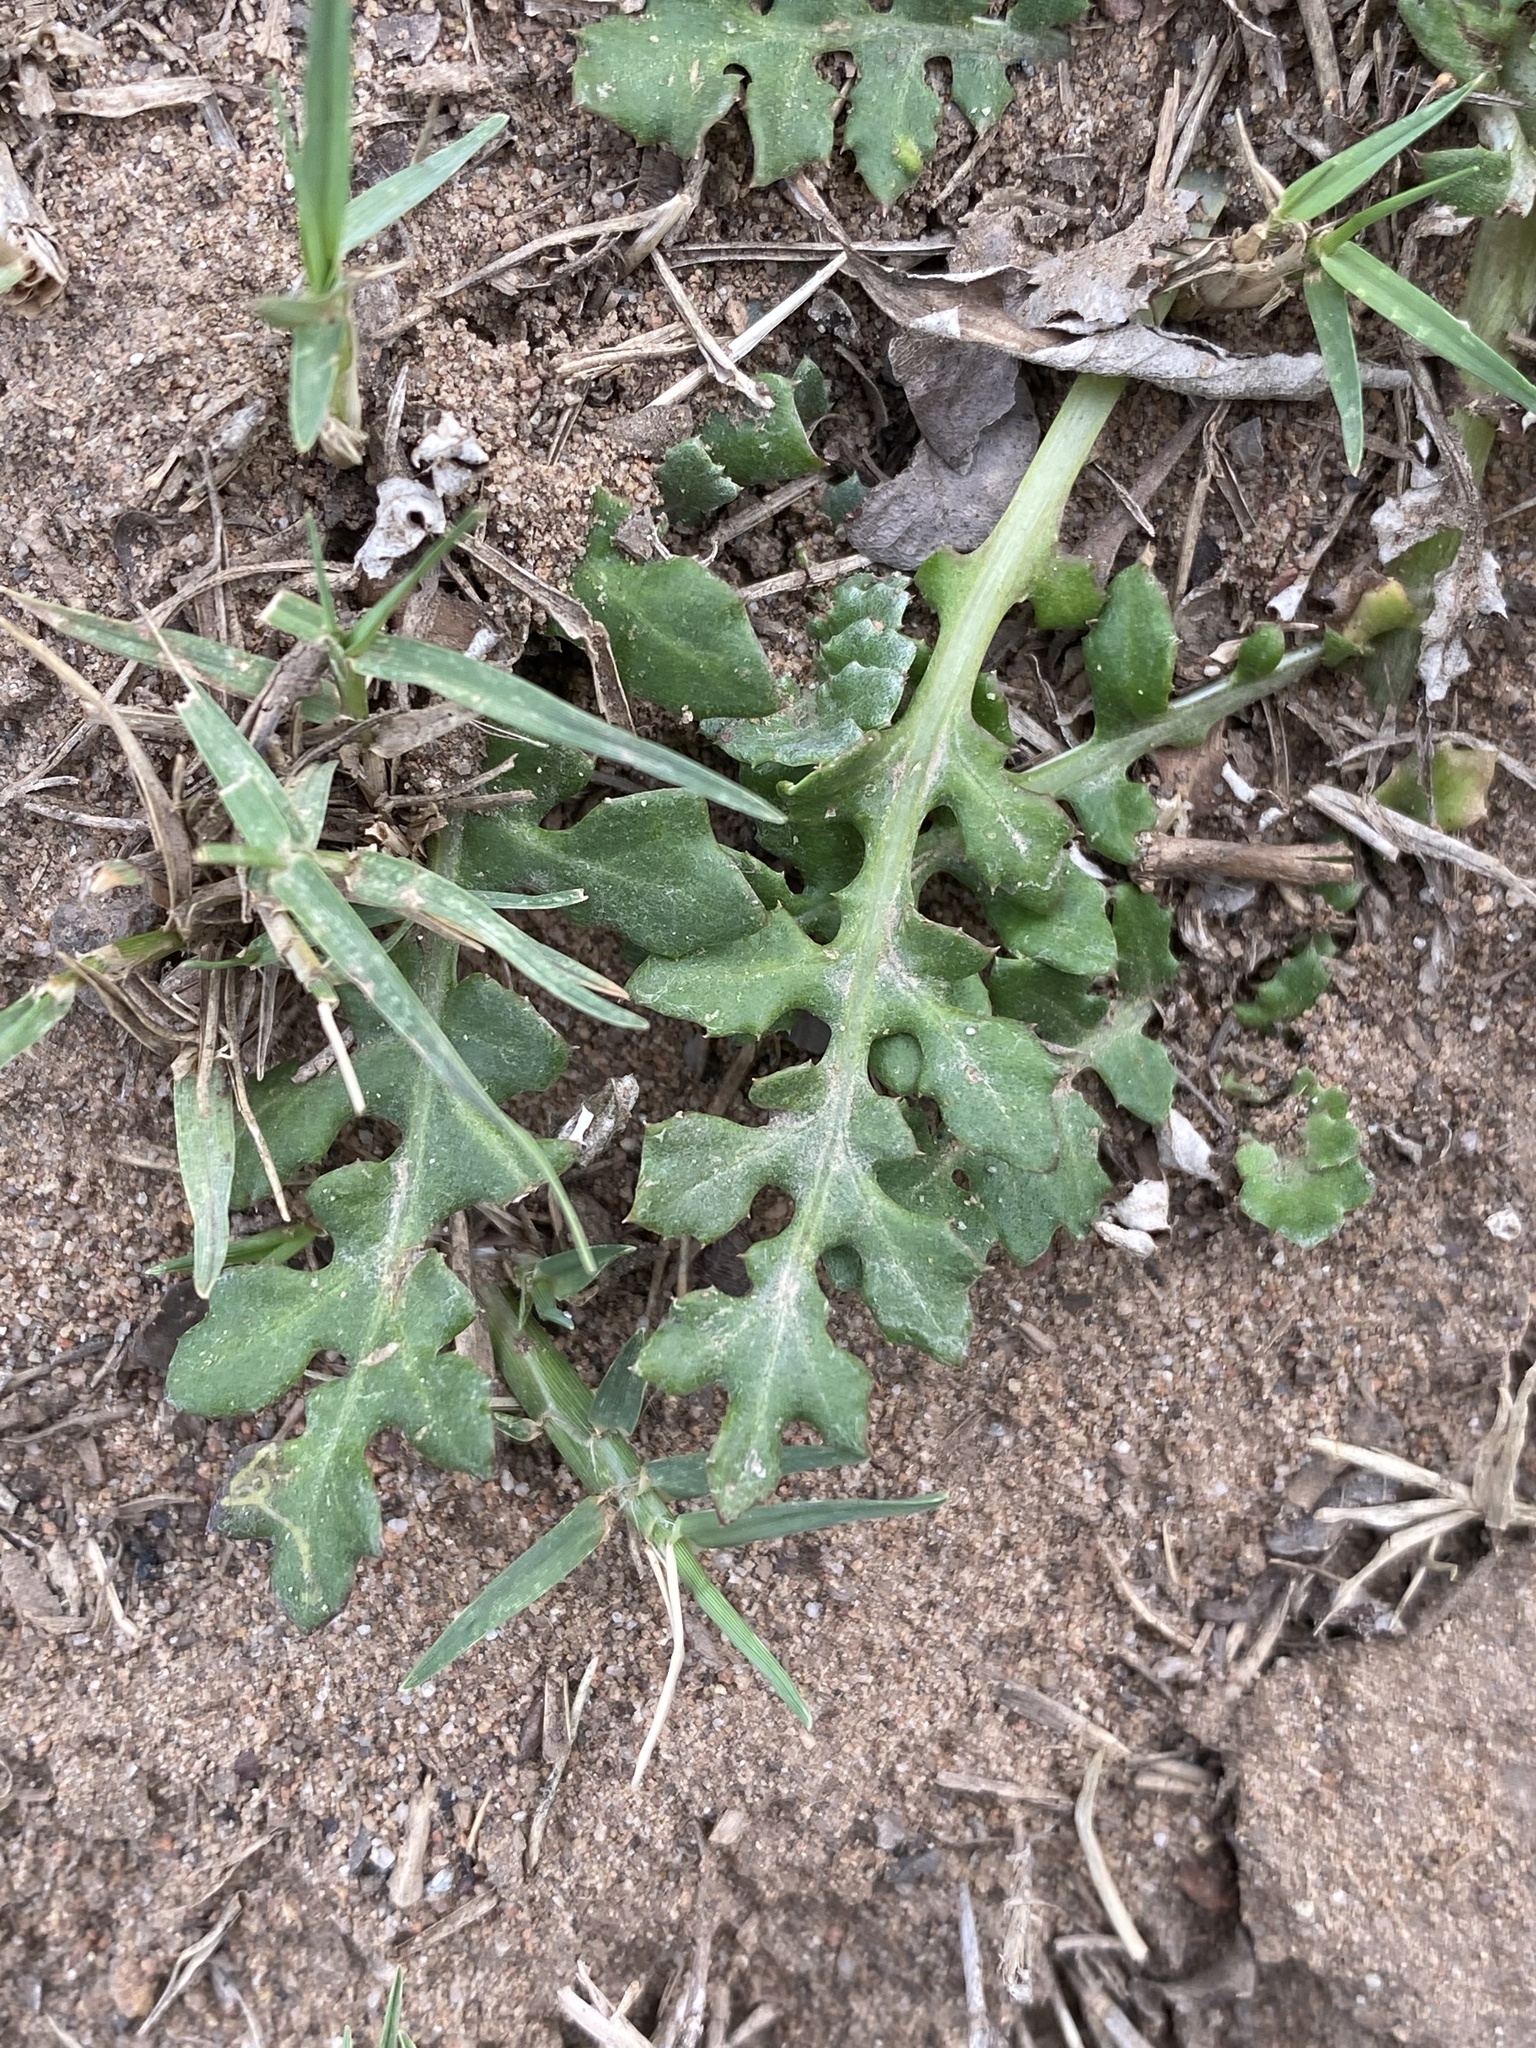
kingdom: Plantae
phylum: Tracheophyta
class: Magnoliopsida
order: Asterales
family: Asteraceae
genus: Arctotheca
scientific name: Arctotheca prostrata
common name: Capeweed
